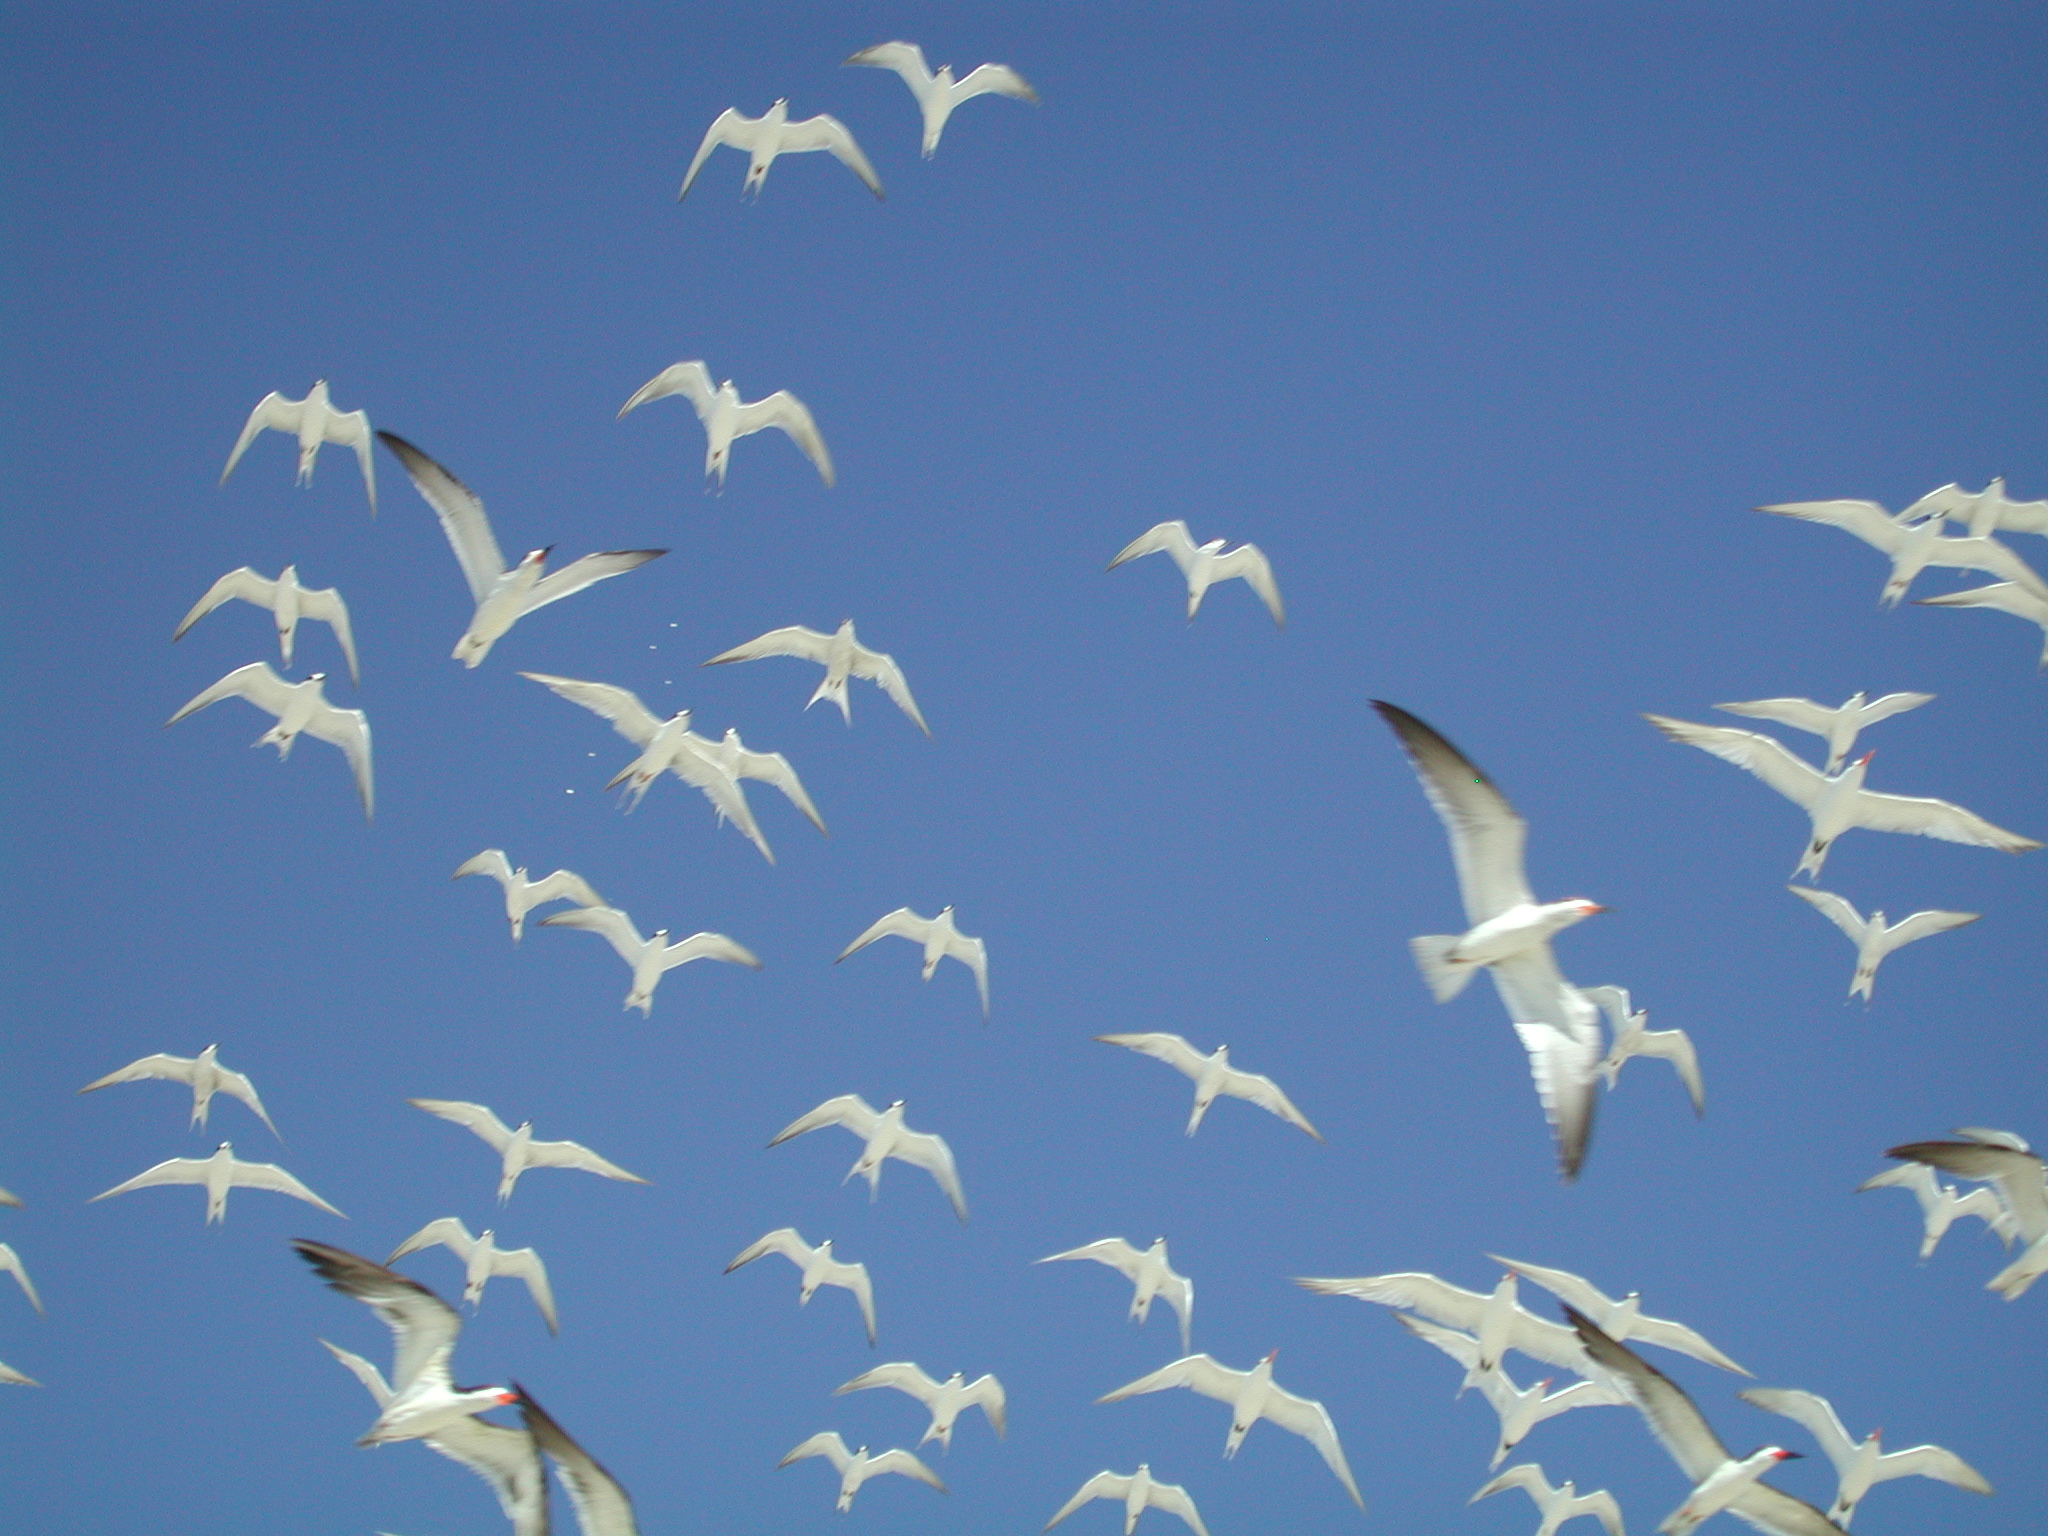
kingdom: Animalia
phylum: Chordata
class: Aves
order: Charadriiformes
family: Laridae
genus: Rynchops
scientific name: Rynchops niger
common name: Black skimmer
